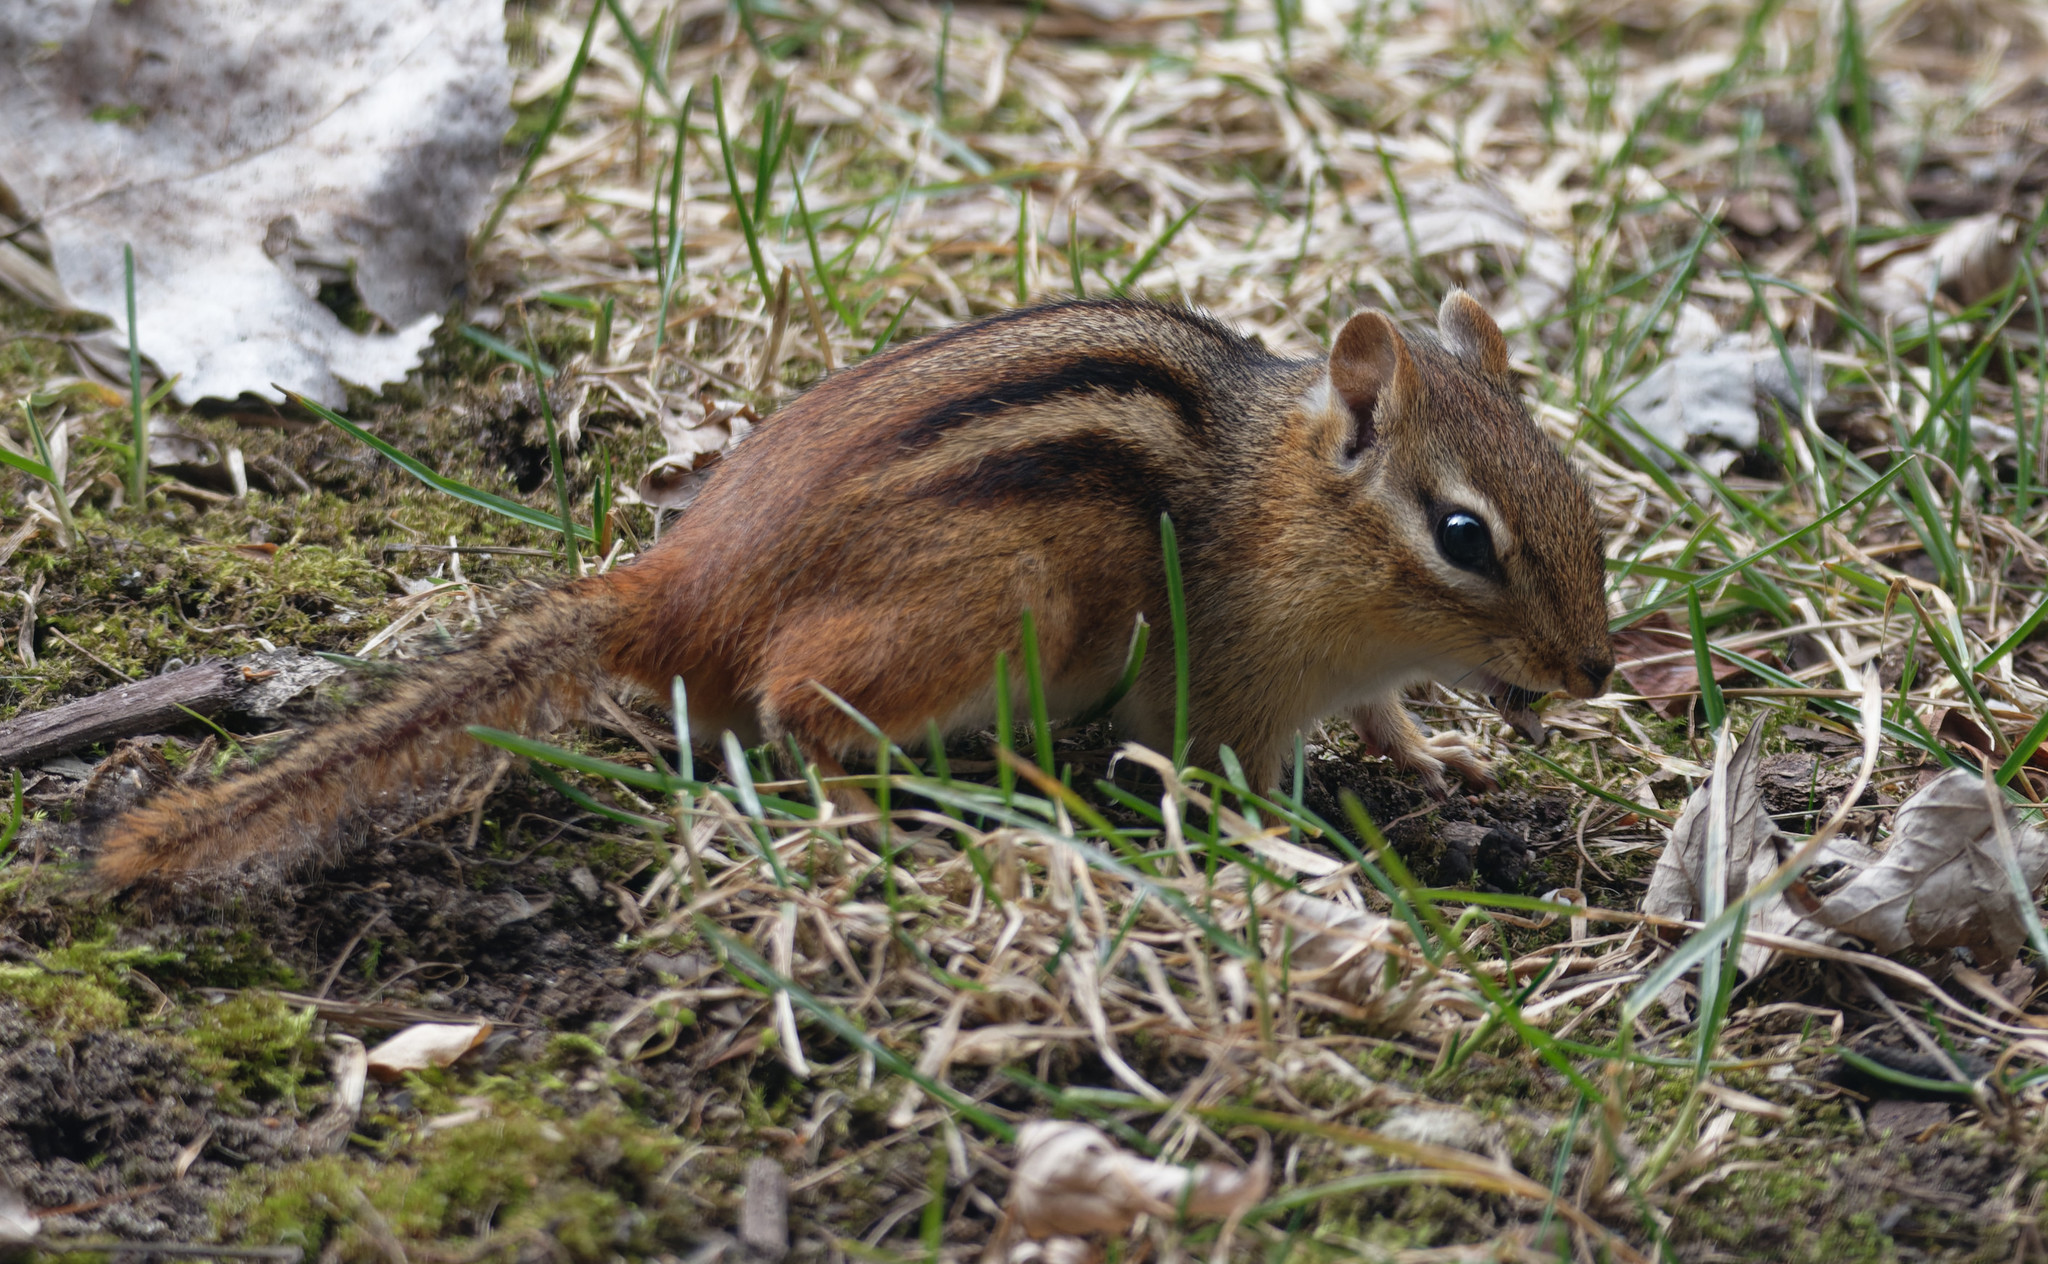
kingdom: Animalia
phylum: Chordata
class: Mammalia
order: Rodentia
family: Sciuridae
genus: Tamias
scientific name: Tamias striatus
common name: Eastern chipmunk
